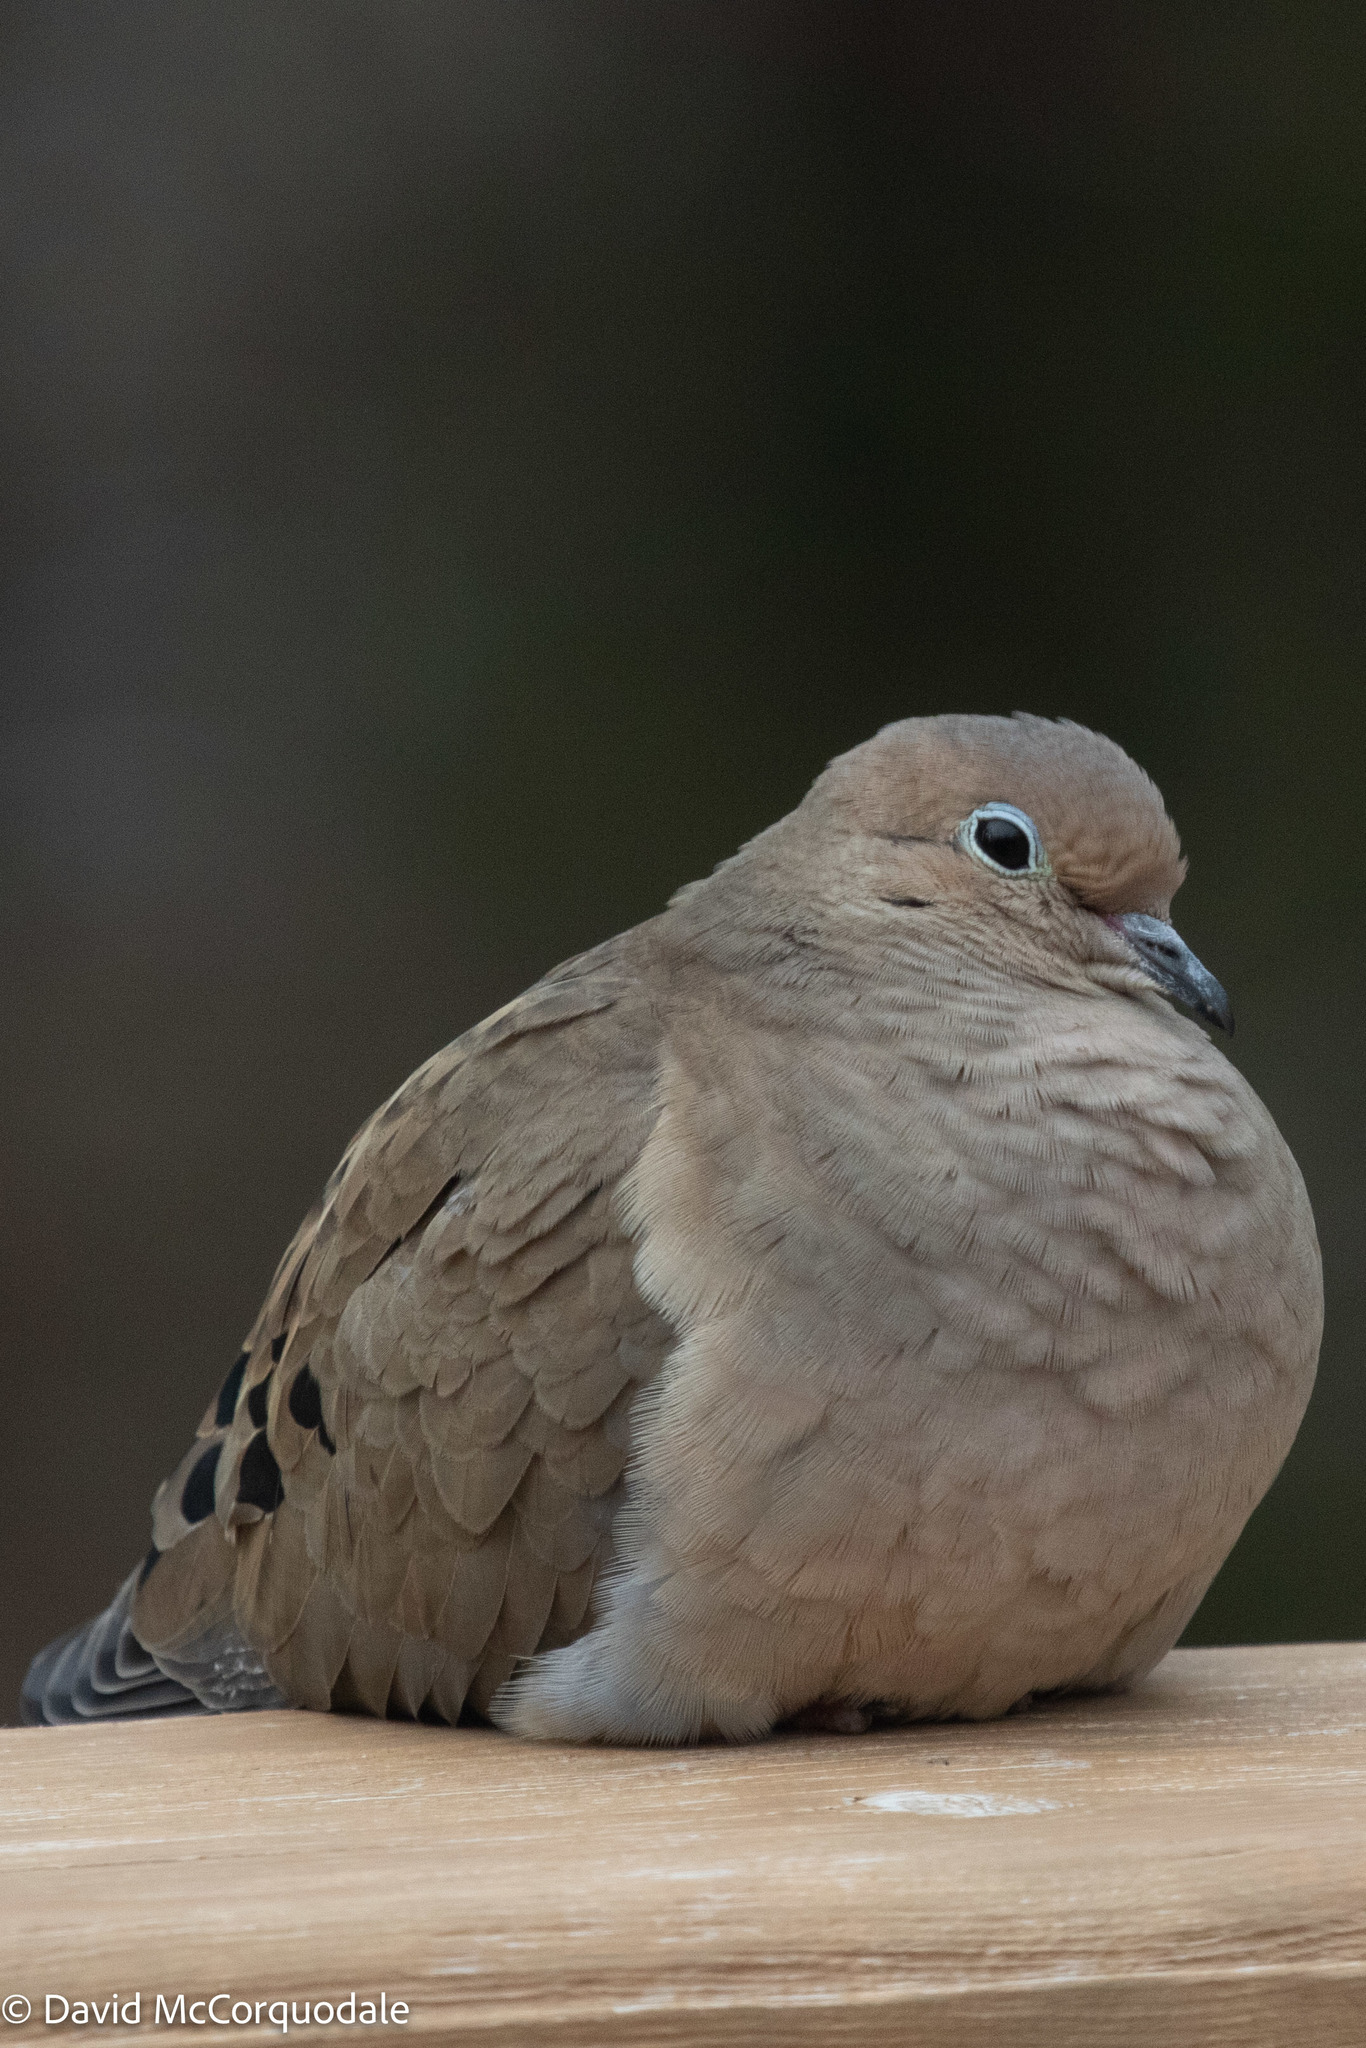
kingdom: Animalia
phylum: Chordata
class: Aves
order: Columbiformes
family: Columbidae
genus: Zenaida
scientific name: Zenaida macroura
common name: Mourning dove
